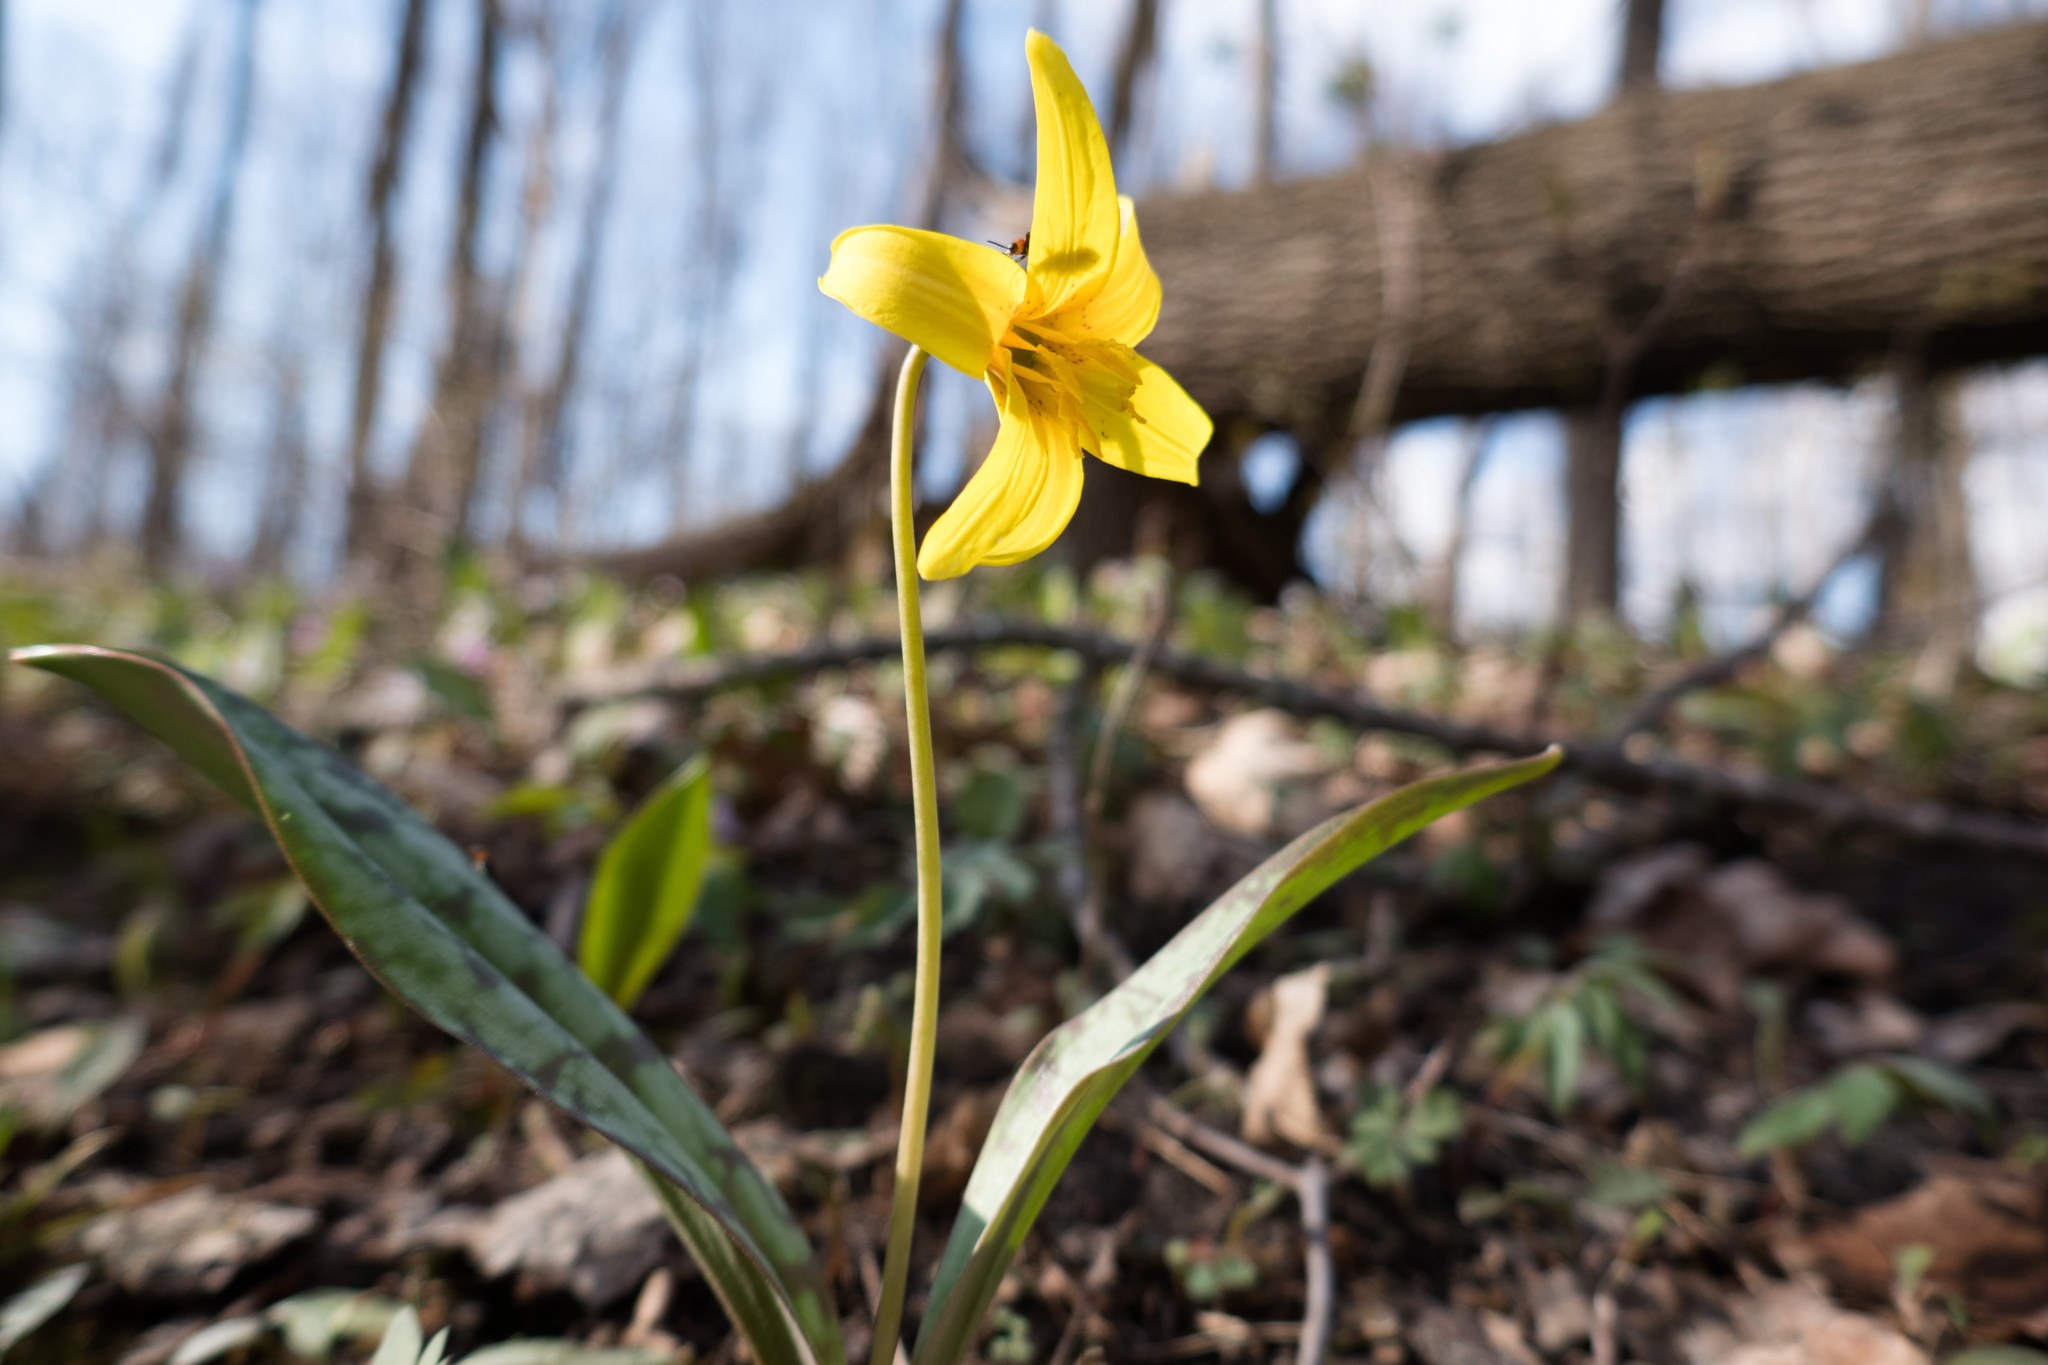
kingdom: Plantae
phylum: Tracheophyta
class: Liliopsida
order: Liliales
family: Liliaceae
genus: Erythronium
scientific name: Erythronium americanum
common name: Yellow adder's-tongue
